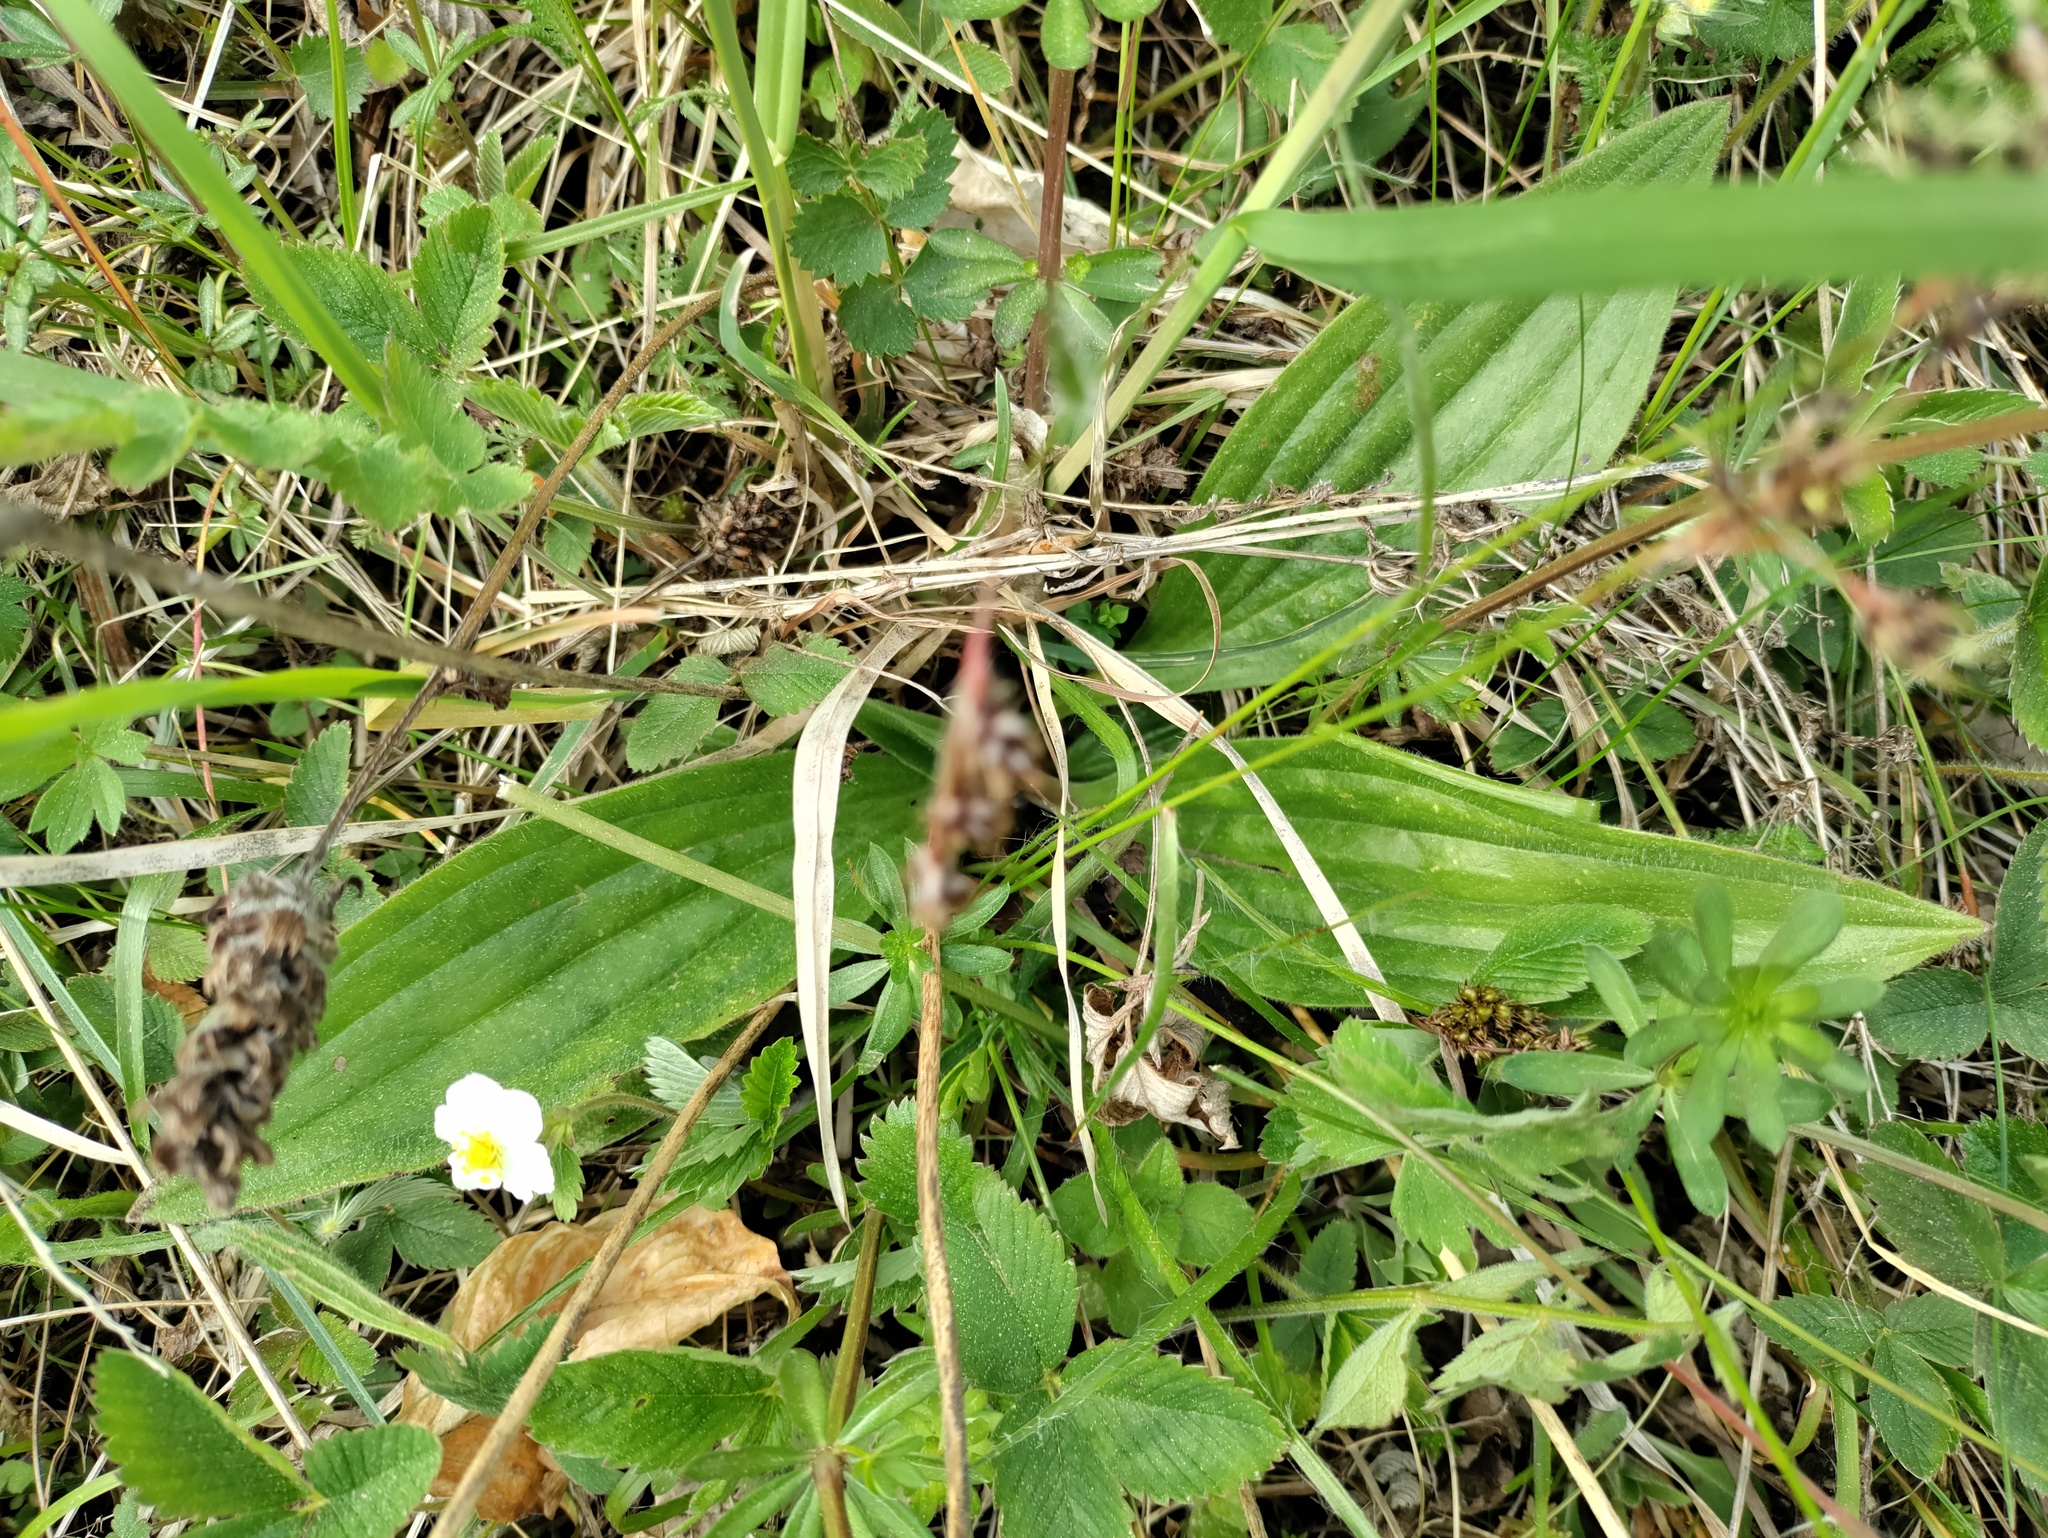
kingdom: Plantae
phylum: Tracheophyta
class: Magnoliopsida
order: Lamiales
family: Plantaginaceae
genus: Plantago
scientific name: Plantago media
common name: Hoary plantain
